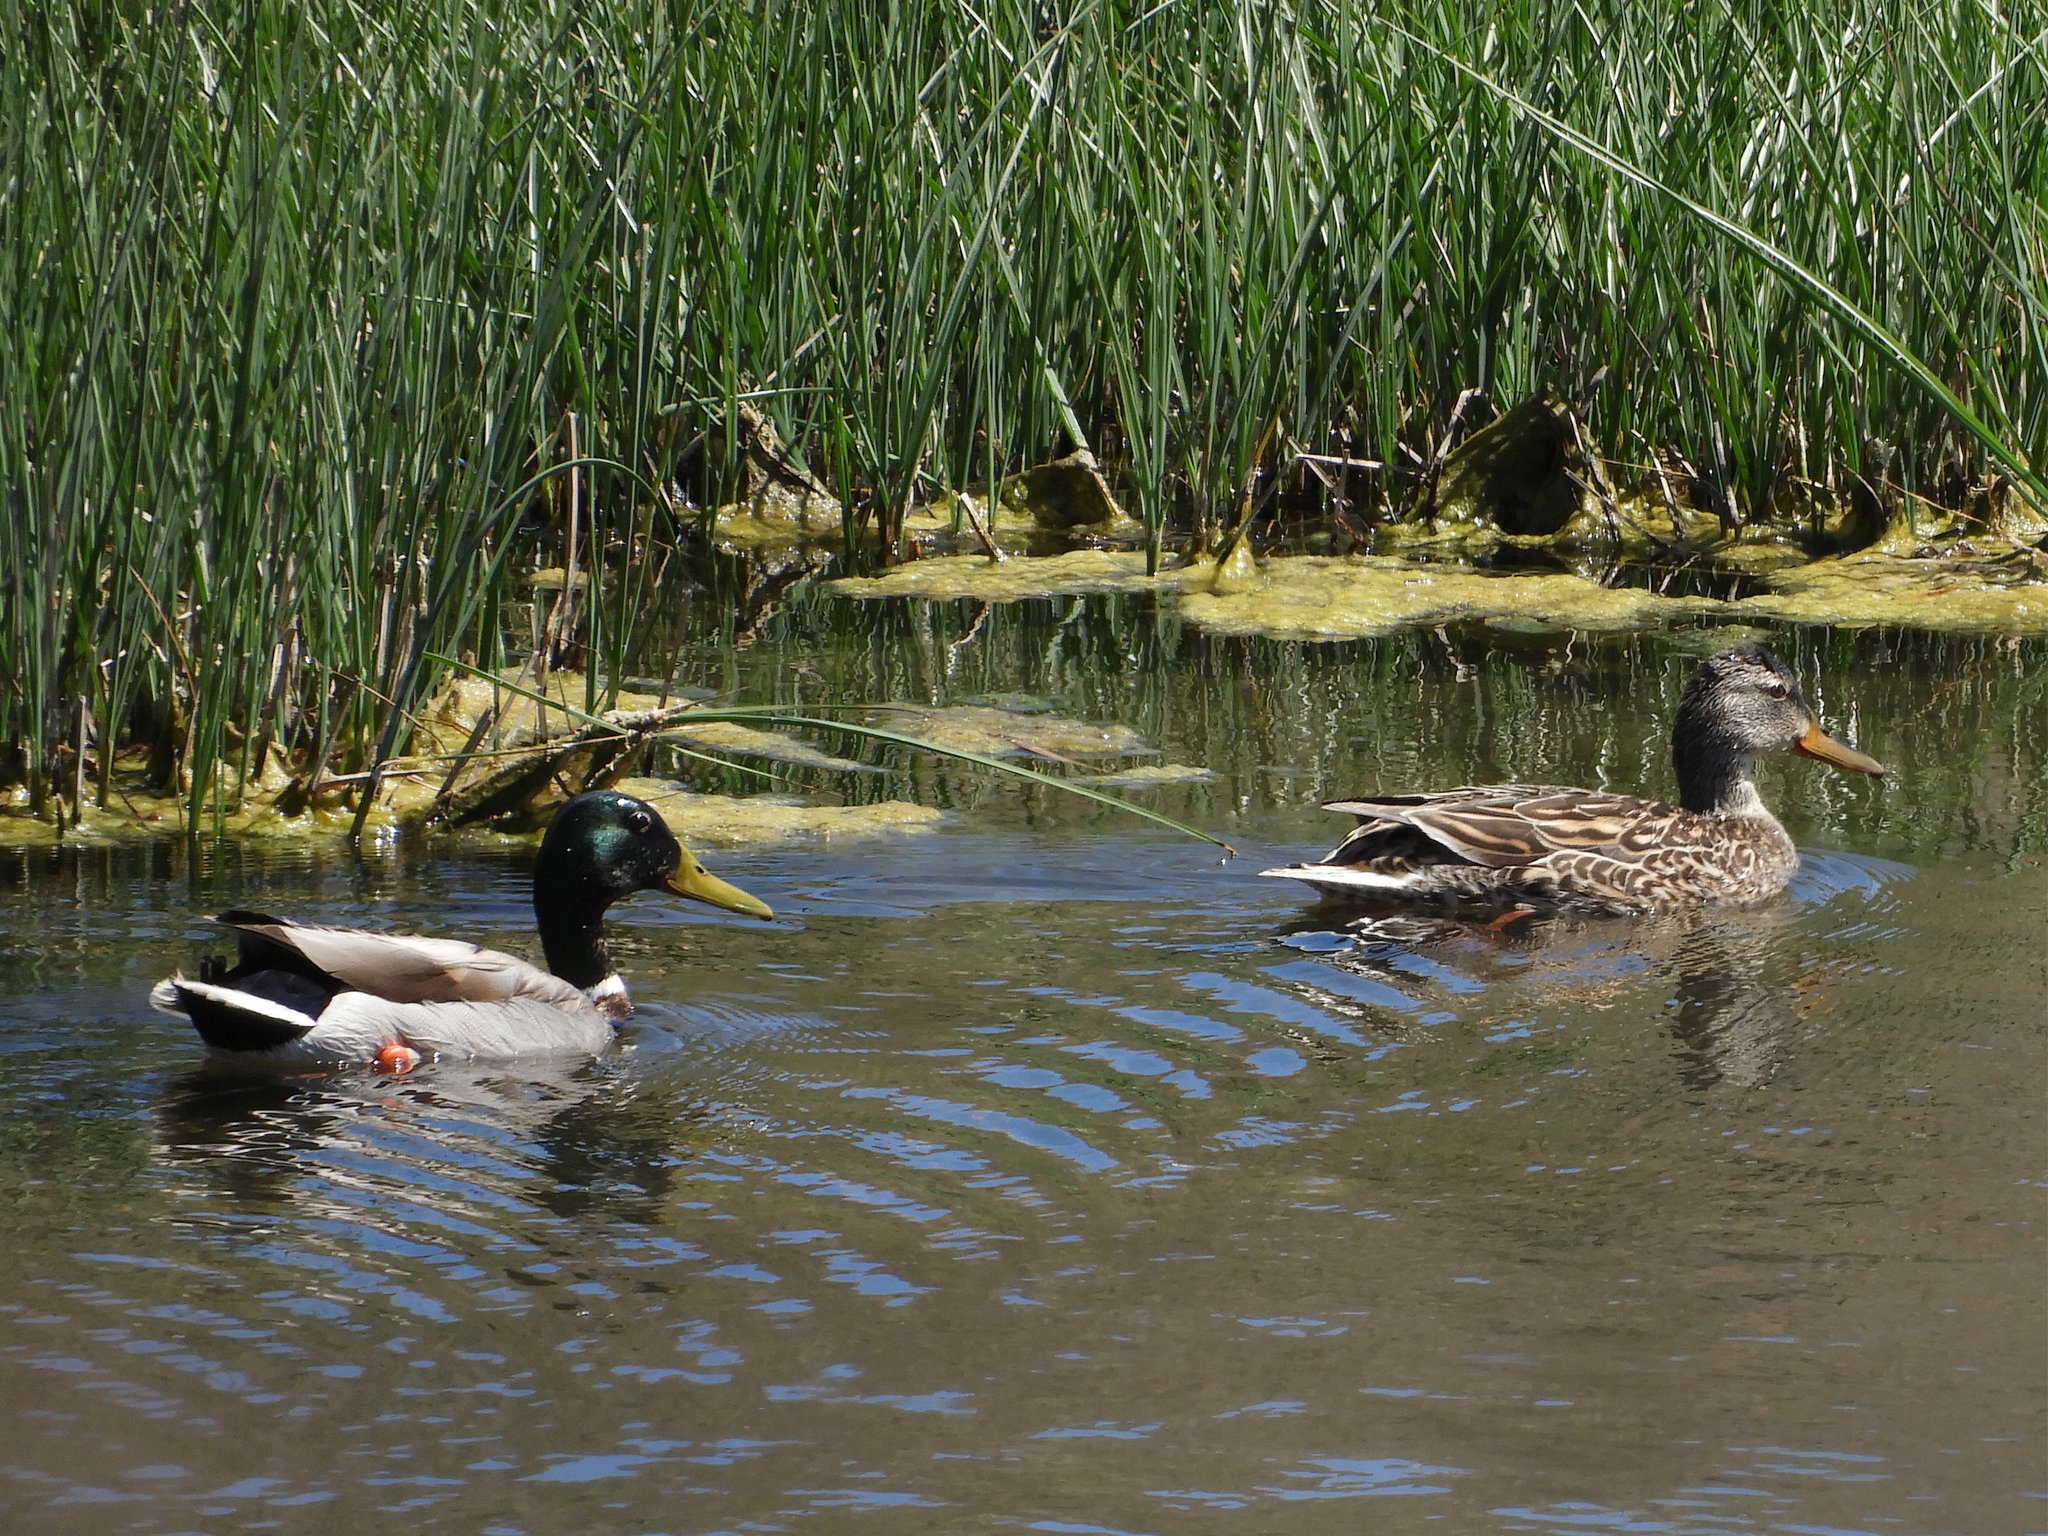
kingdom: Animalia
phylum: Chordata
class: Aves
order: Anseriformes
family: Anatidae
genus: Anas
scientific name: Anas platyrhynchos
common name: Mallard
